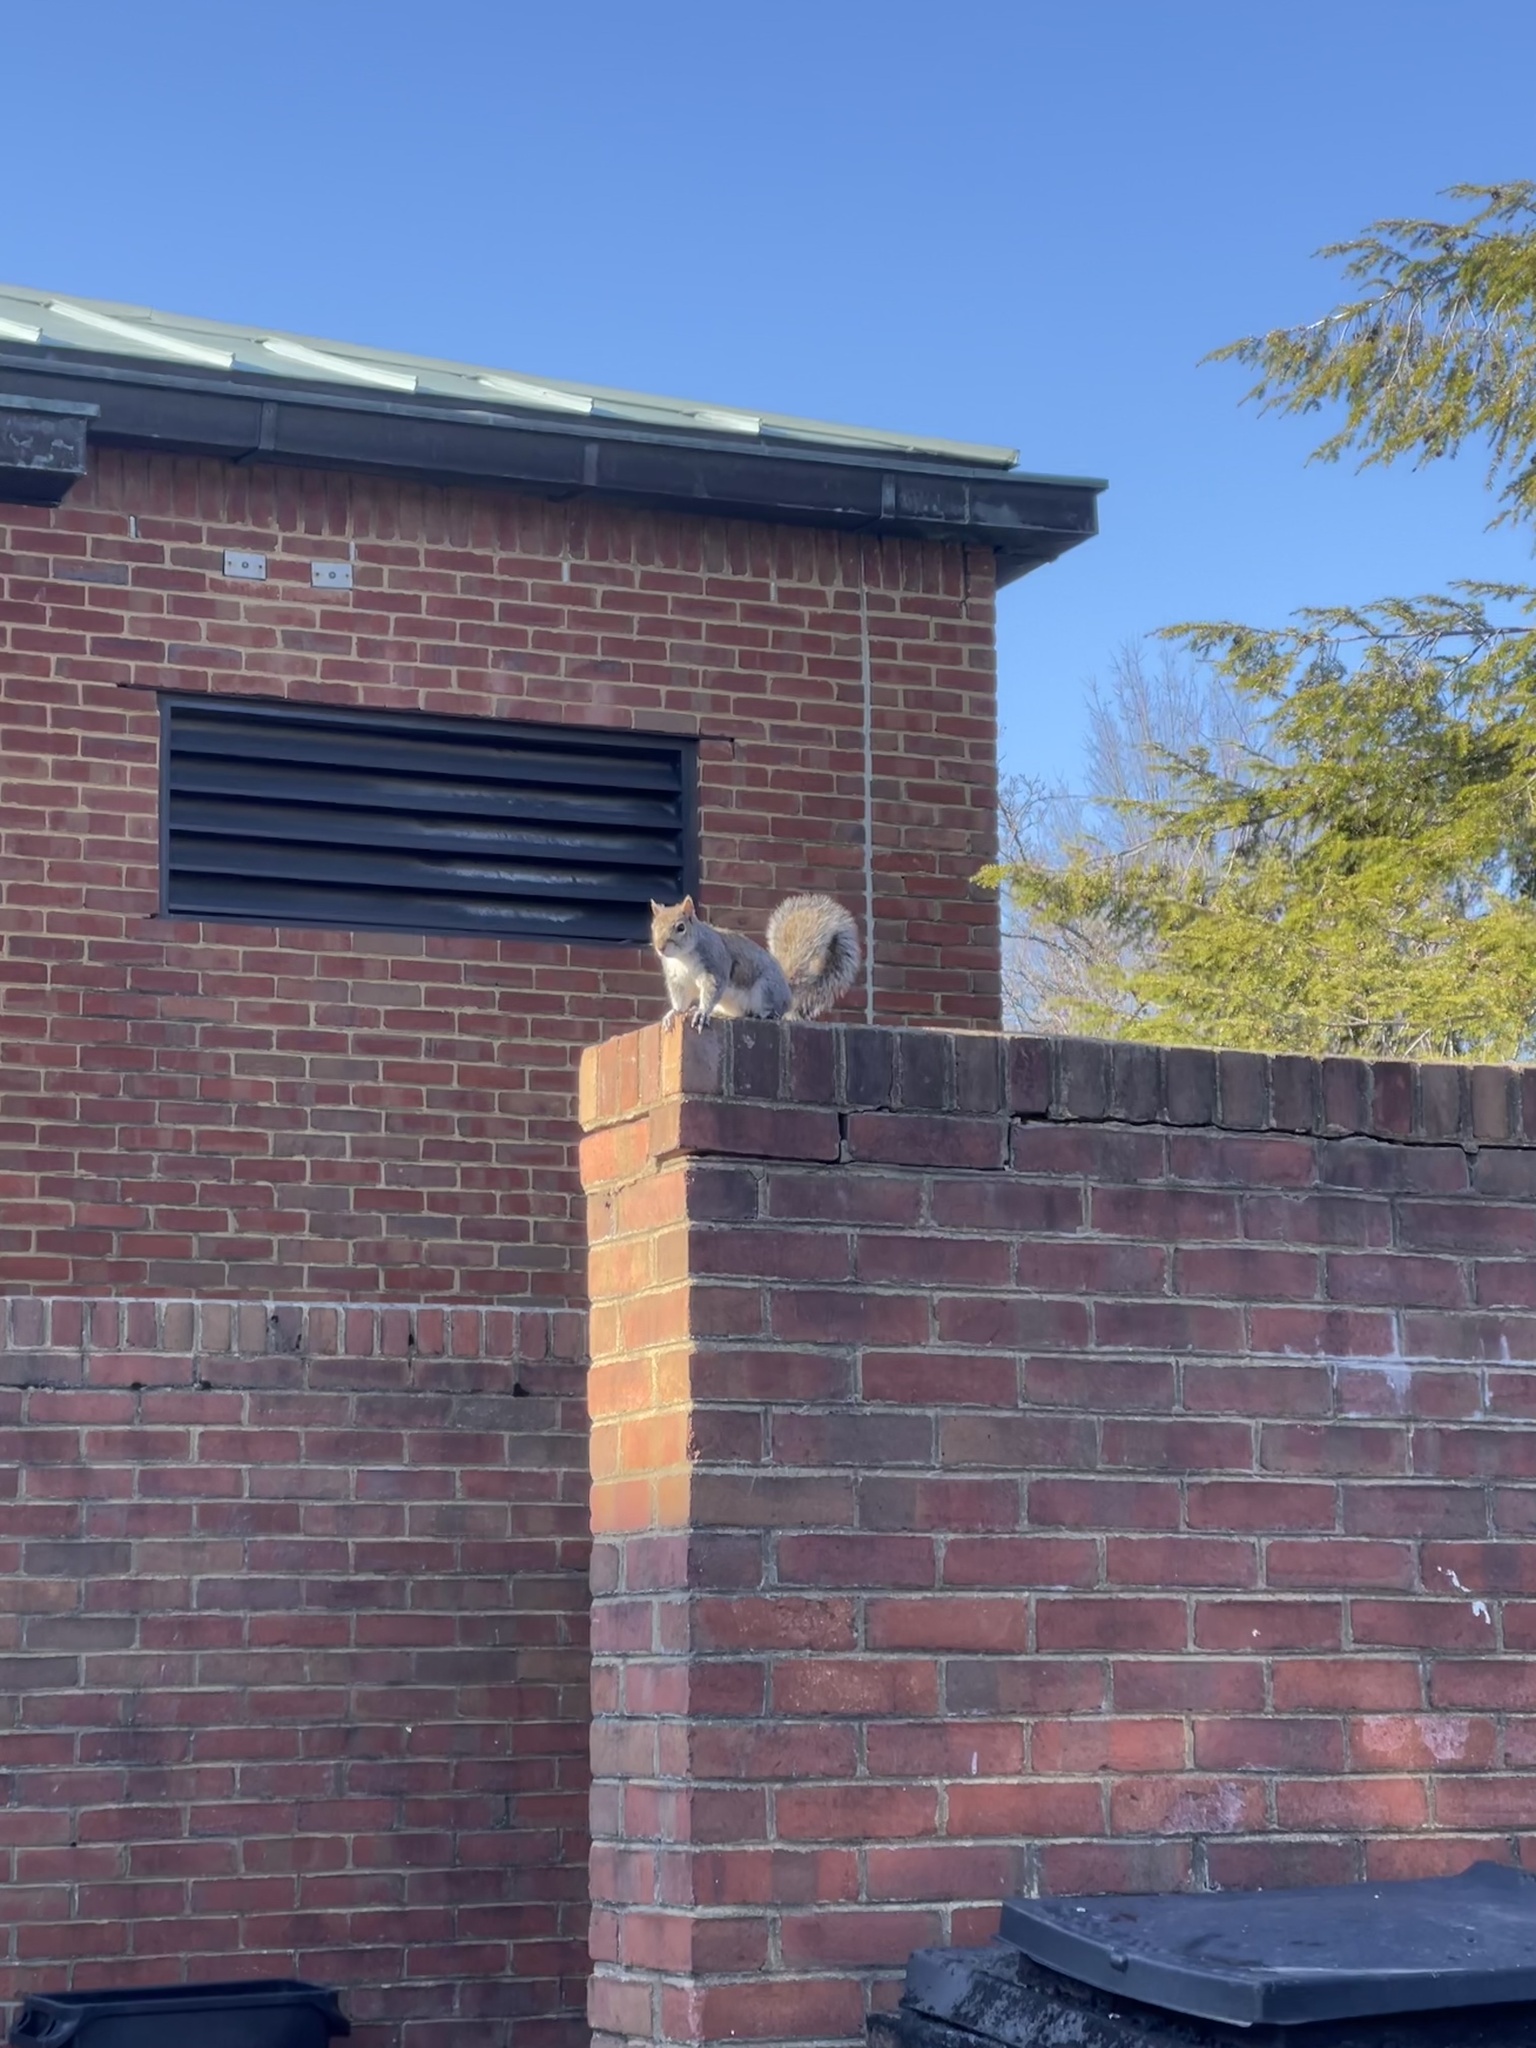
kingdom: Animalia
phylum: Chordata
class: Mammalia
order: Rodentia
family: Sciuridae
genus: Sciurus
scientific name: Sciurus carolinensis
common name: Eastern gray squirrel
